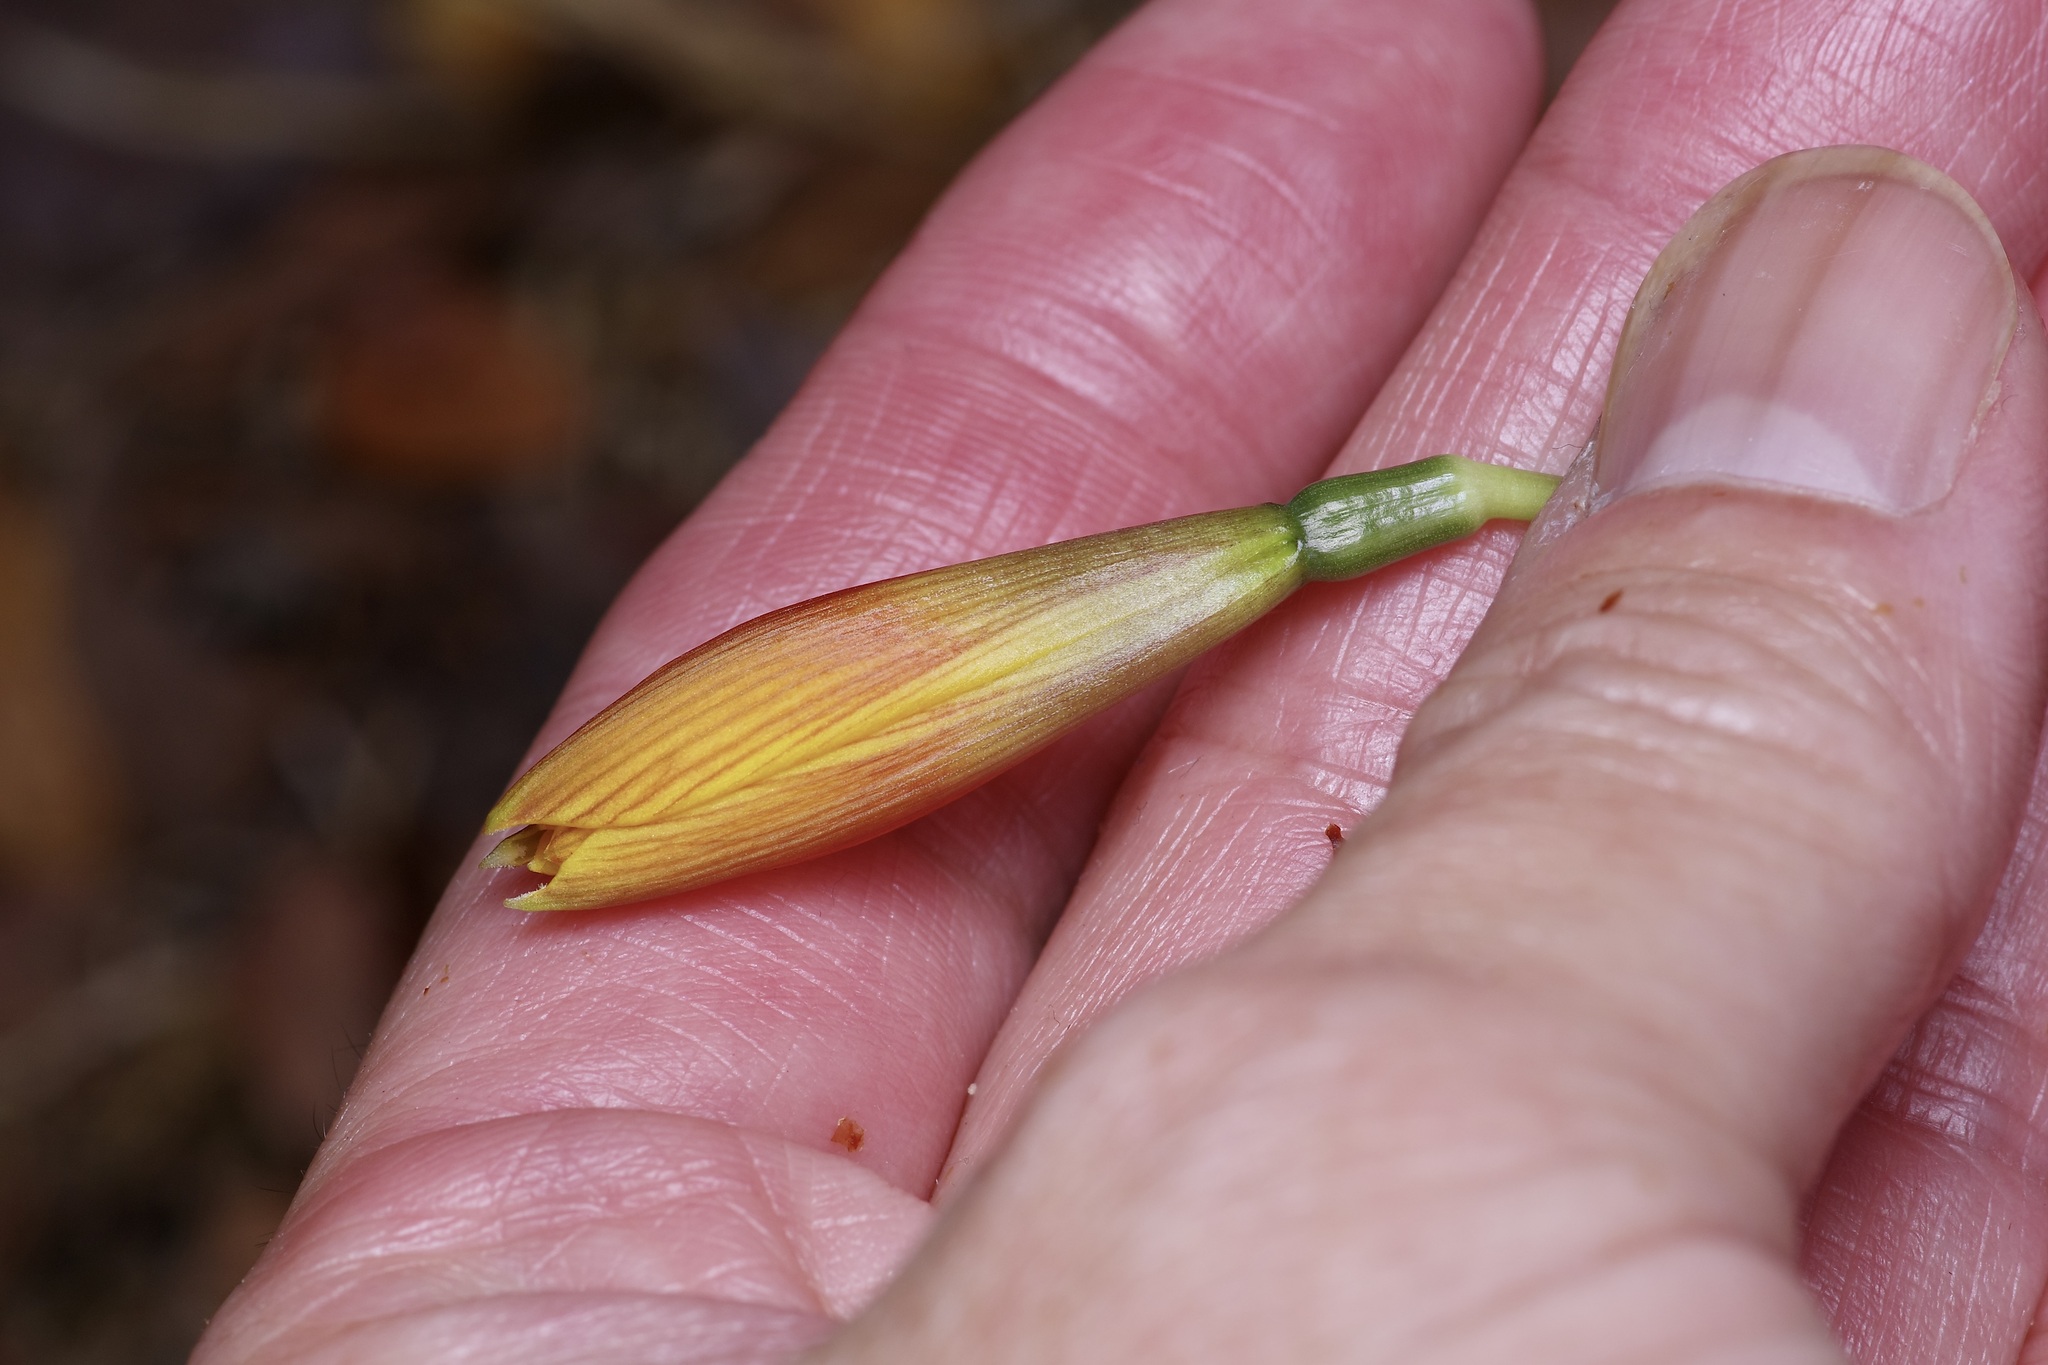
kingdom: Plantae
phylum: Tracheophyta
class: Liliopsida
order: Asparagales
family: Amaryllidaceae
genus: Zephyranthes
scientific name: Zephyranthes tubispatha
